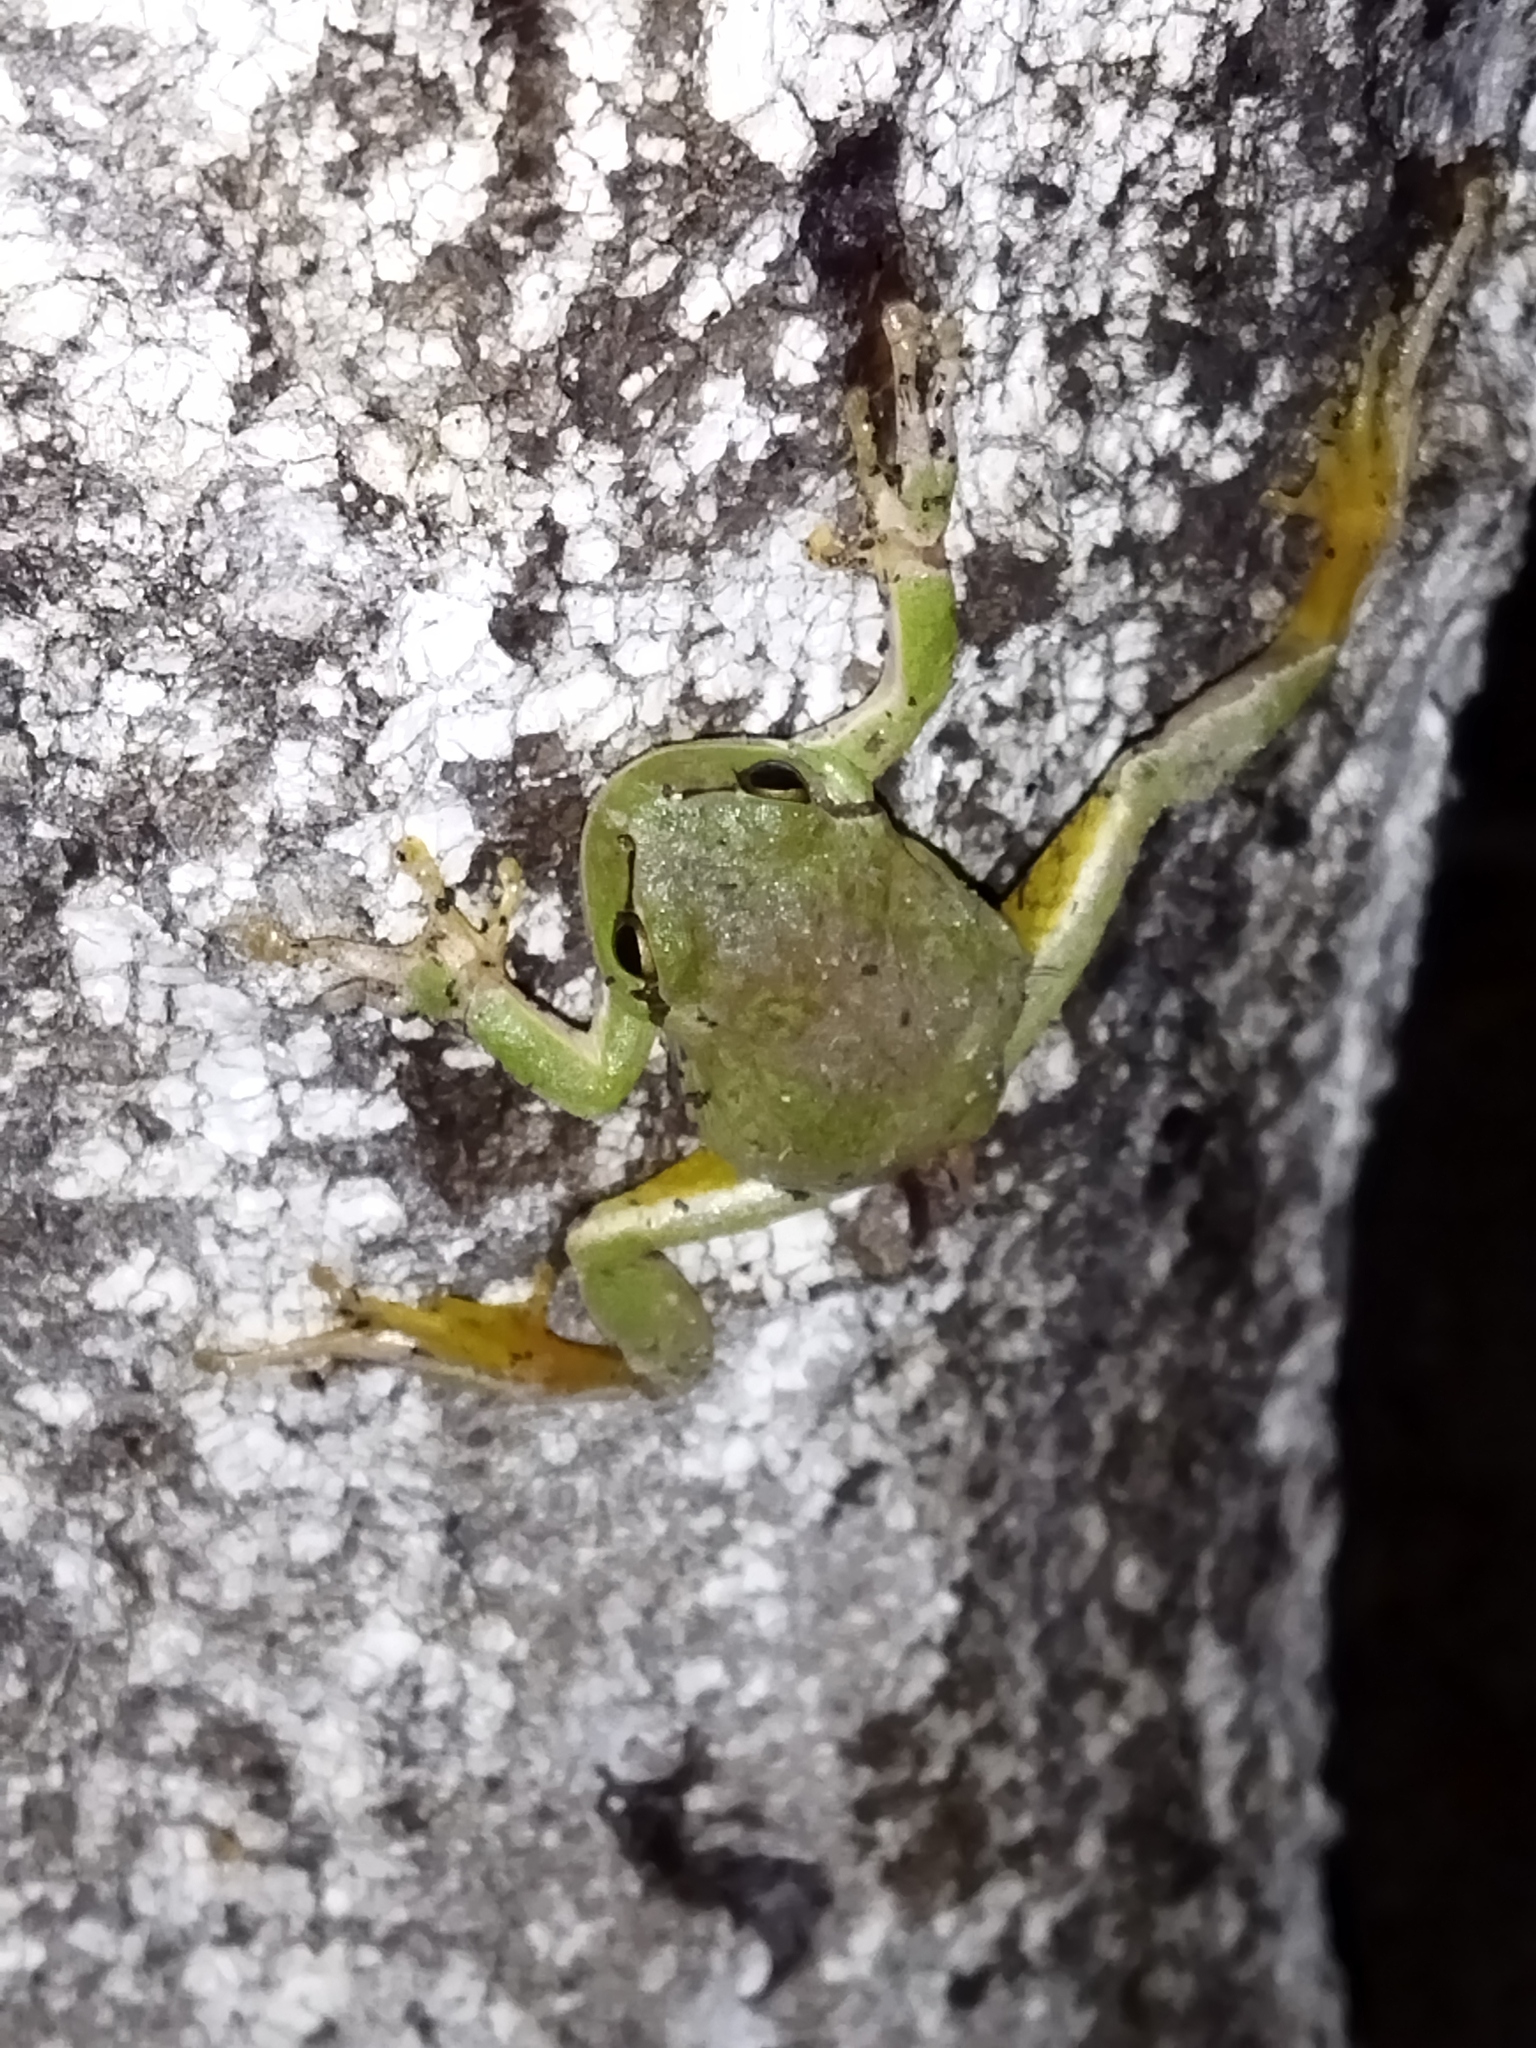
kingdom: Animalia
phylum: Chordata
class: Amphibia
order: Anura
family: Hylidae
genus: Hyla
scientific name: Hyla orientalis
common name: Caucasian treefrog
